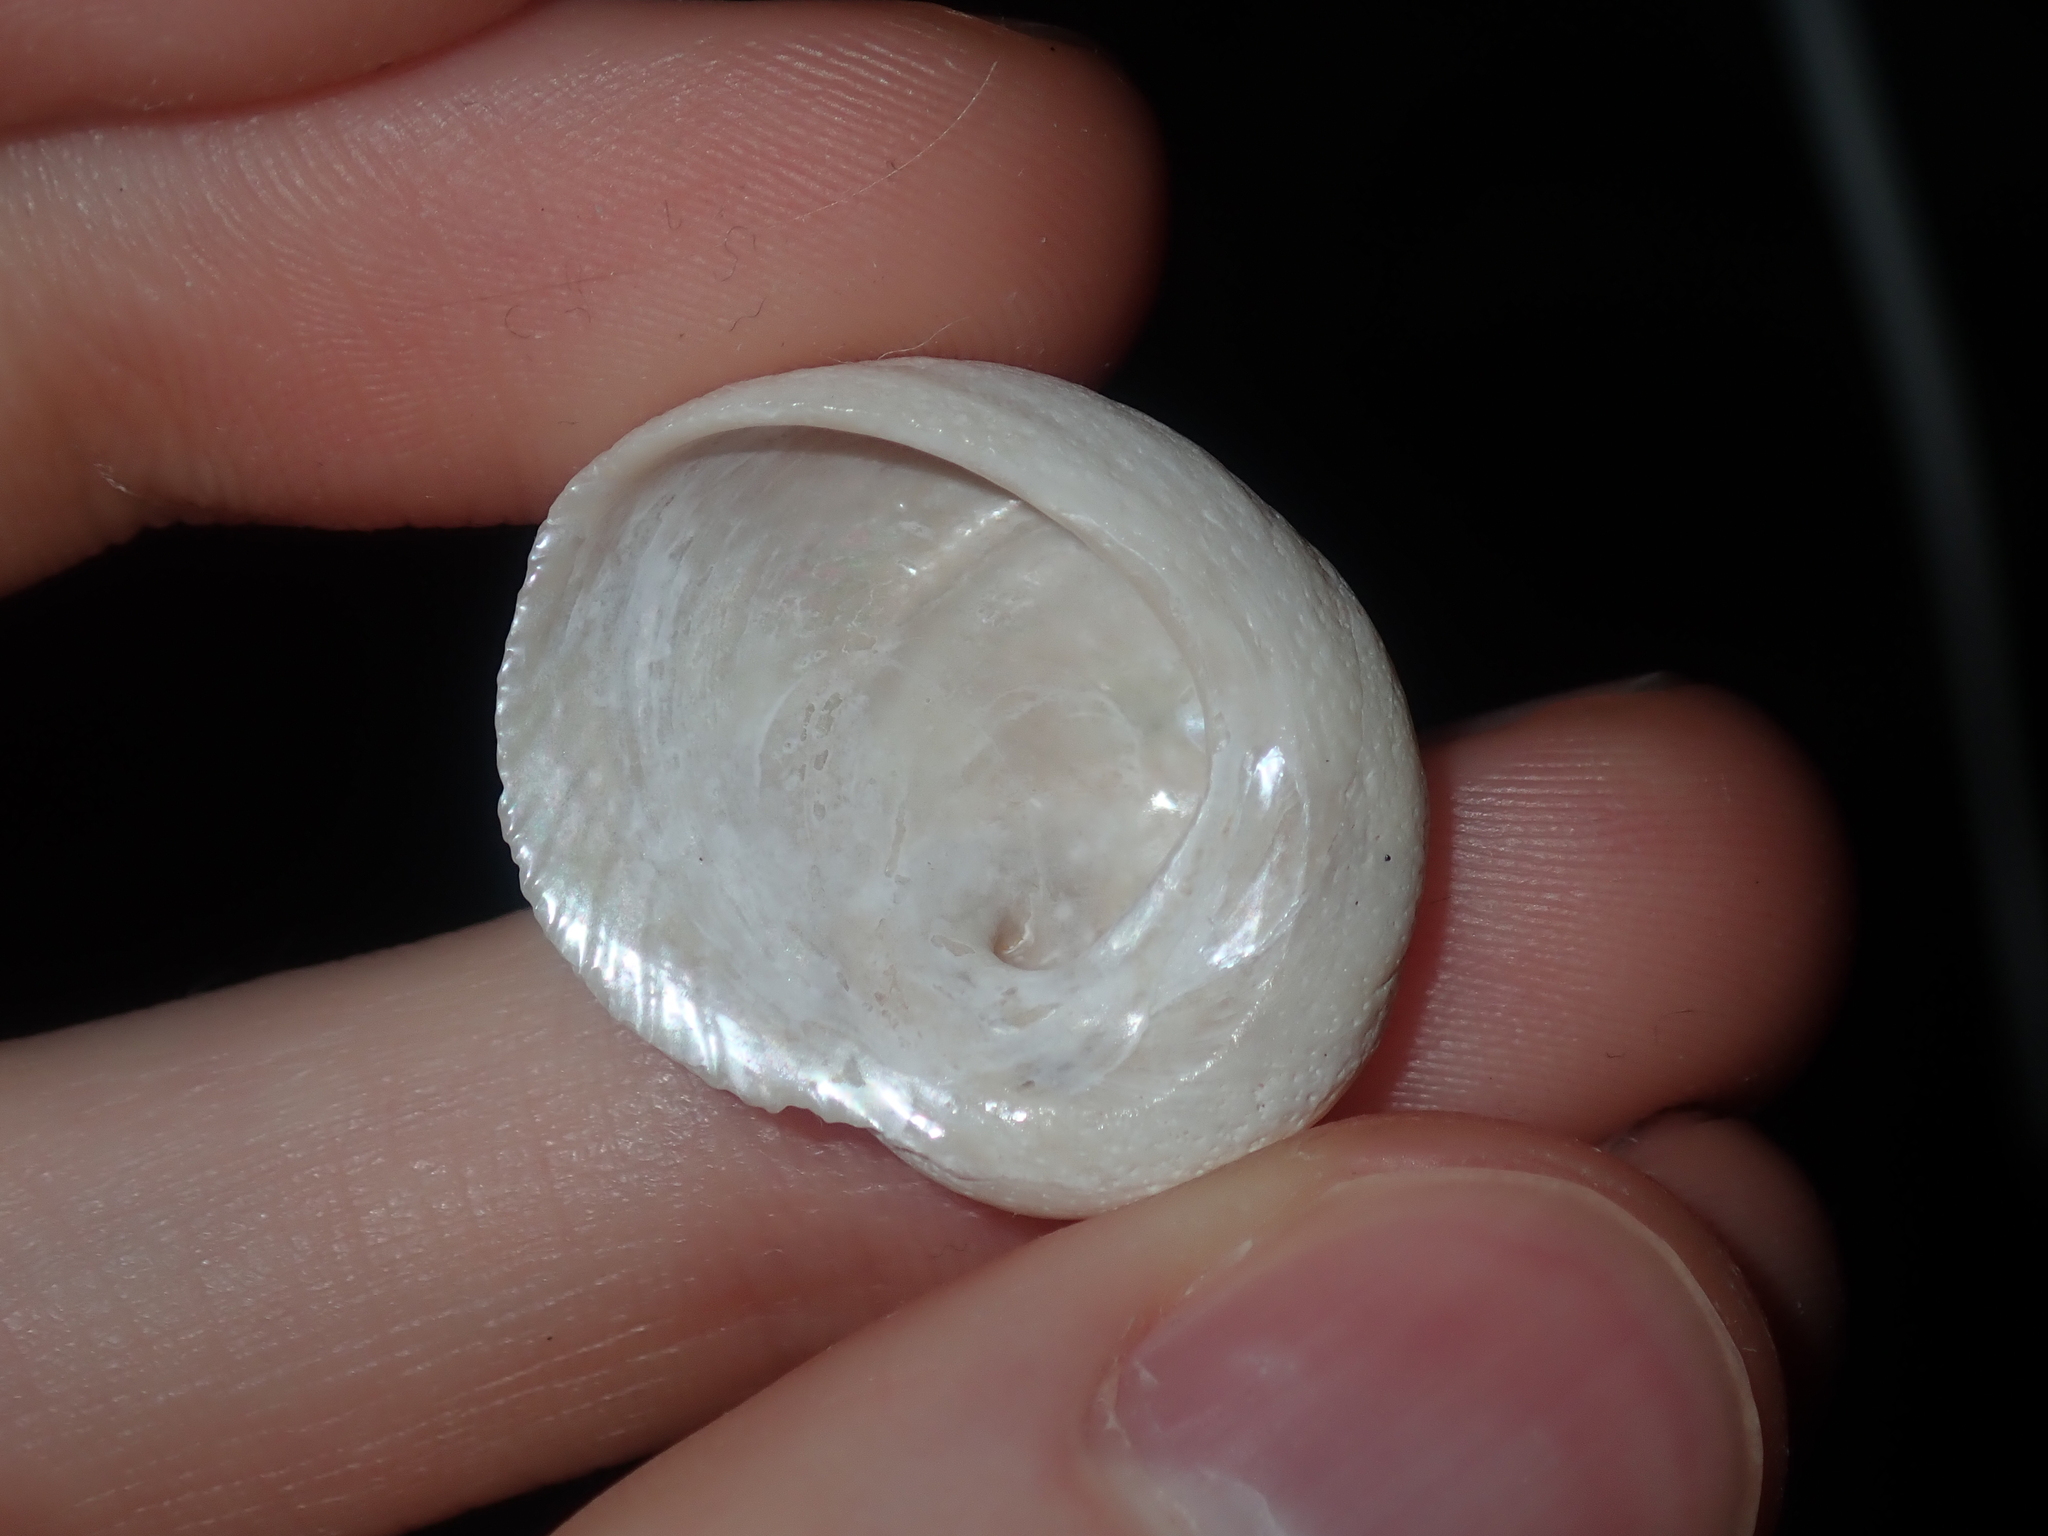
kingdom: Animalia
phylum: Mollusca
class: Gastropoda
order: Seguenziida
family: Chilodontaidae
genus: Granata
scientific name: Granata imbricata
